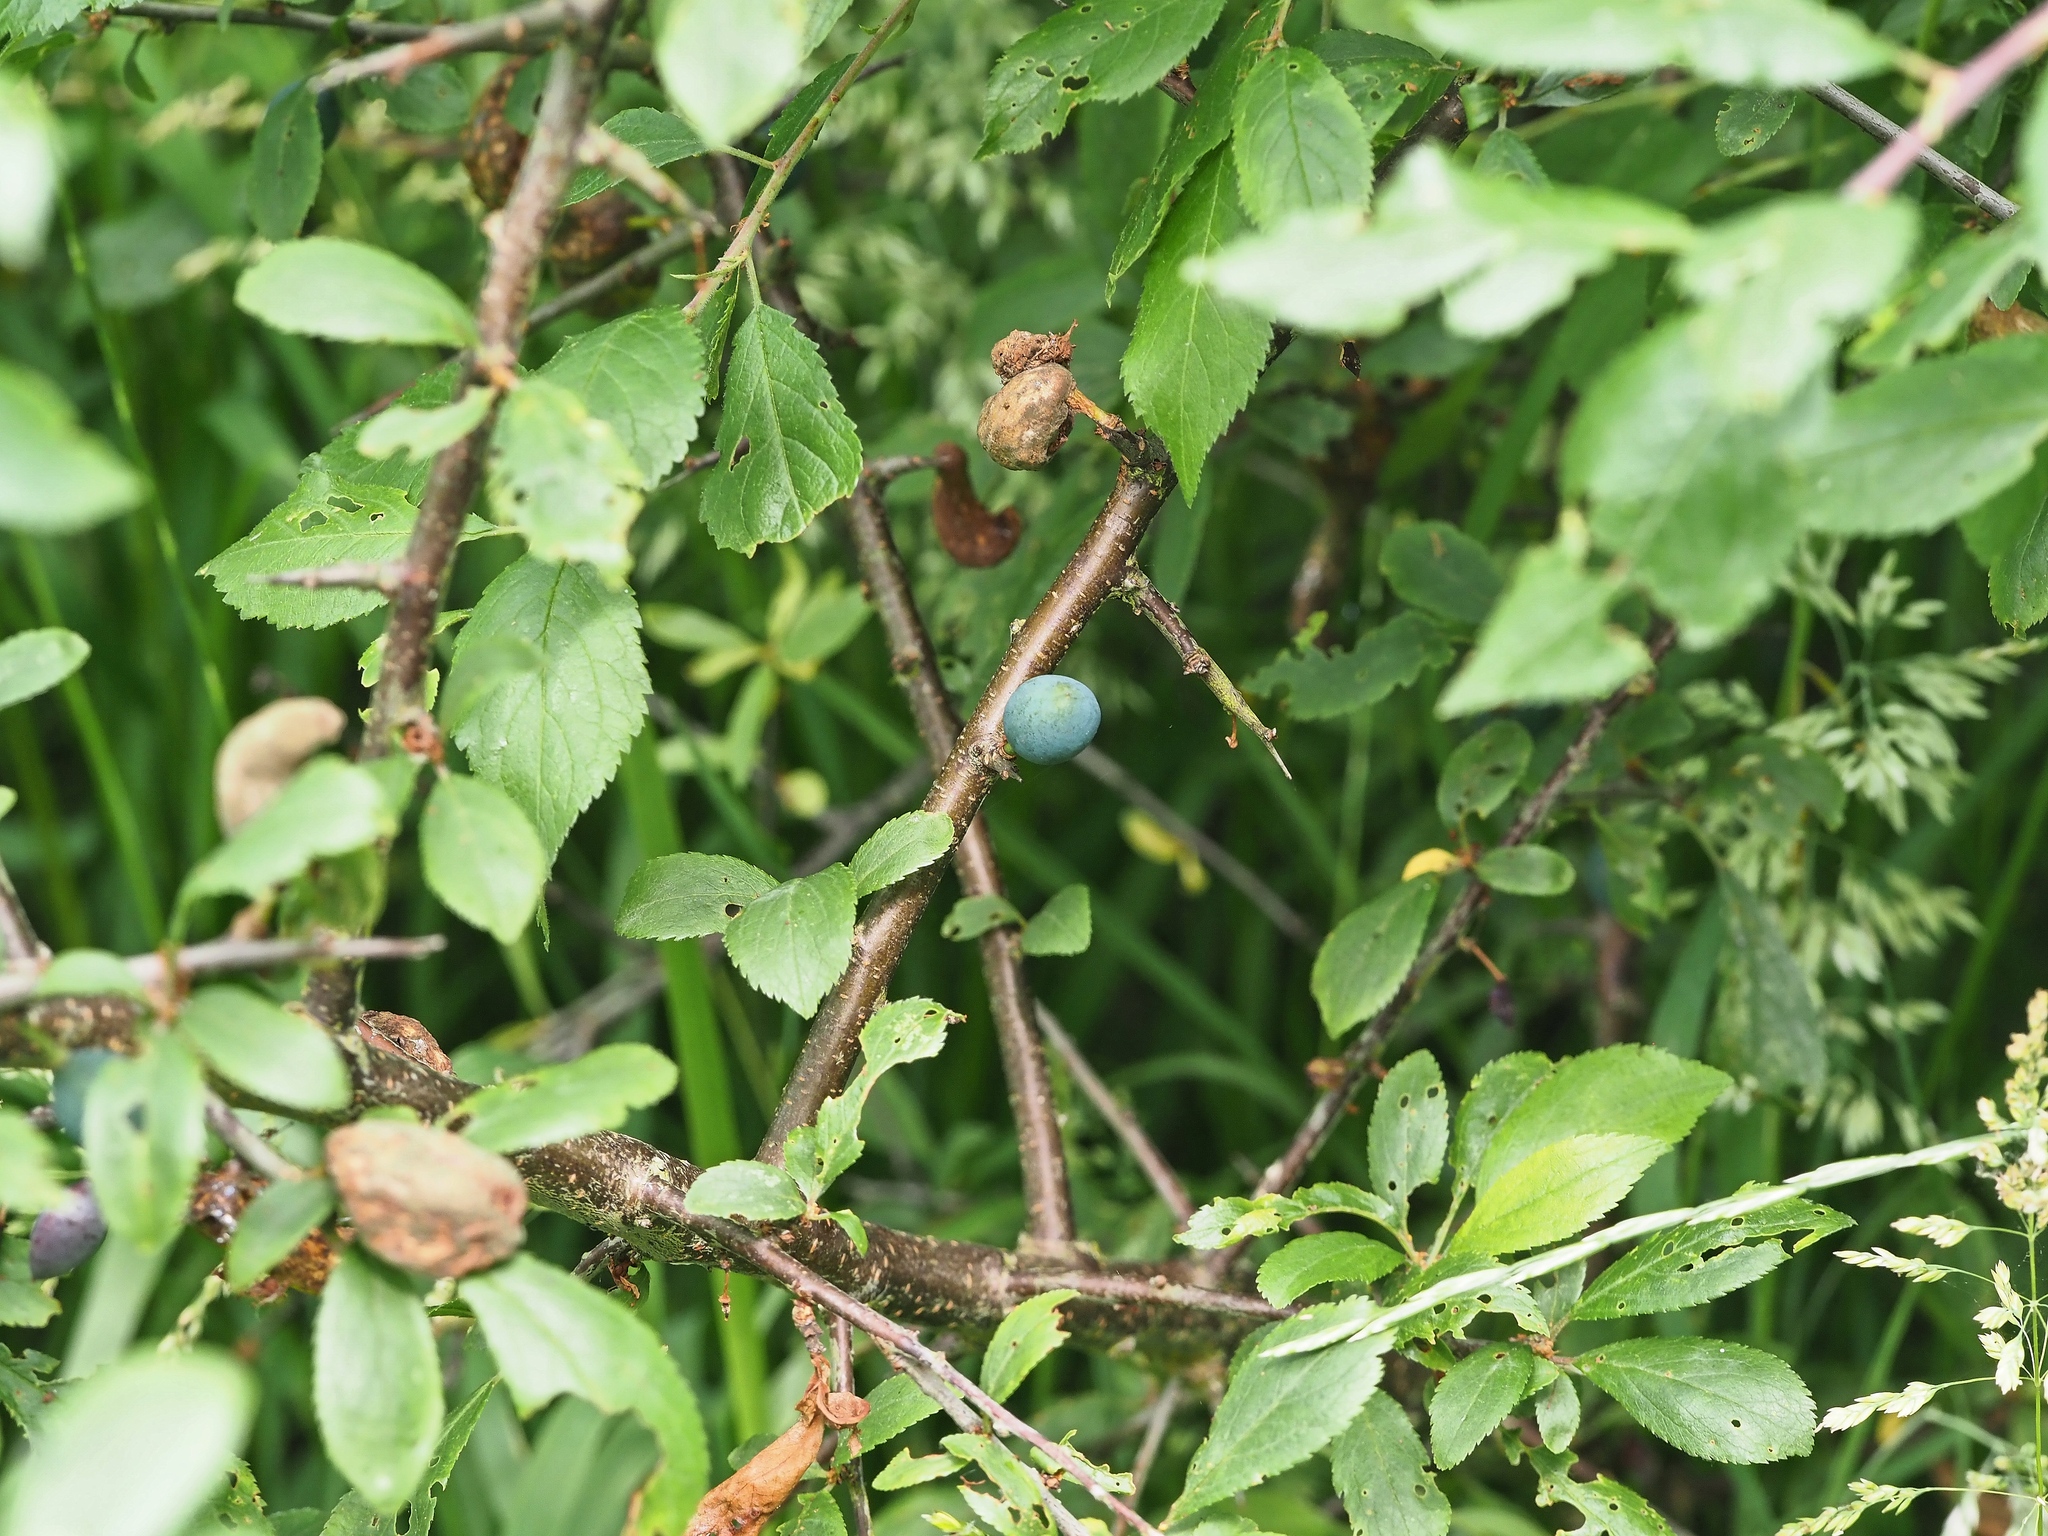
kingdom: Plantae
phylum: Tracheophyta
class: Magnoliopsida
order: Rosales
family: Rosaceae
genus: Prunus
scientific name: Prunus spinosa
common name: Blackthorn
